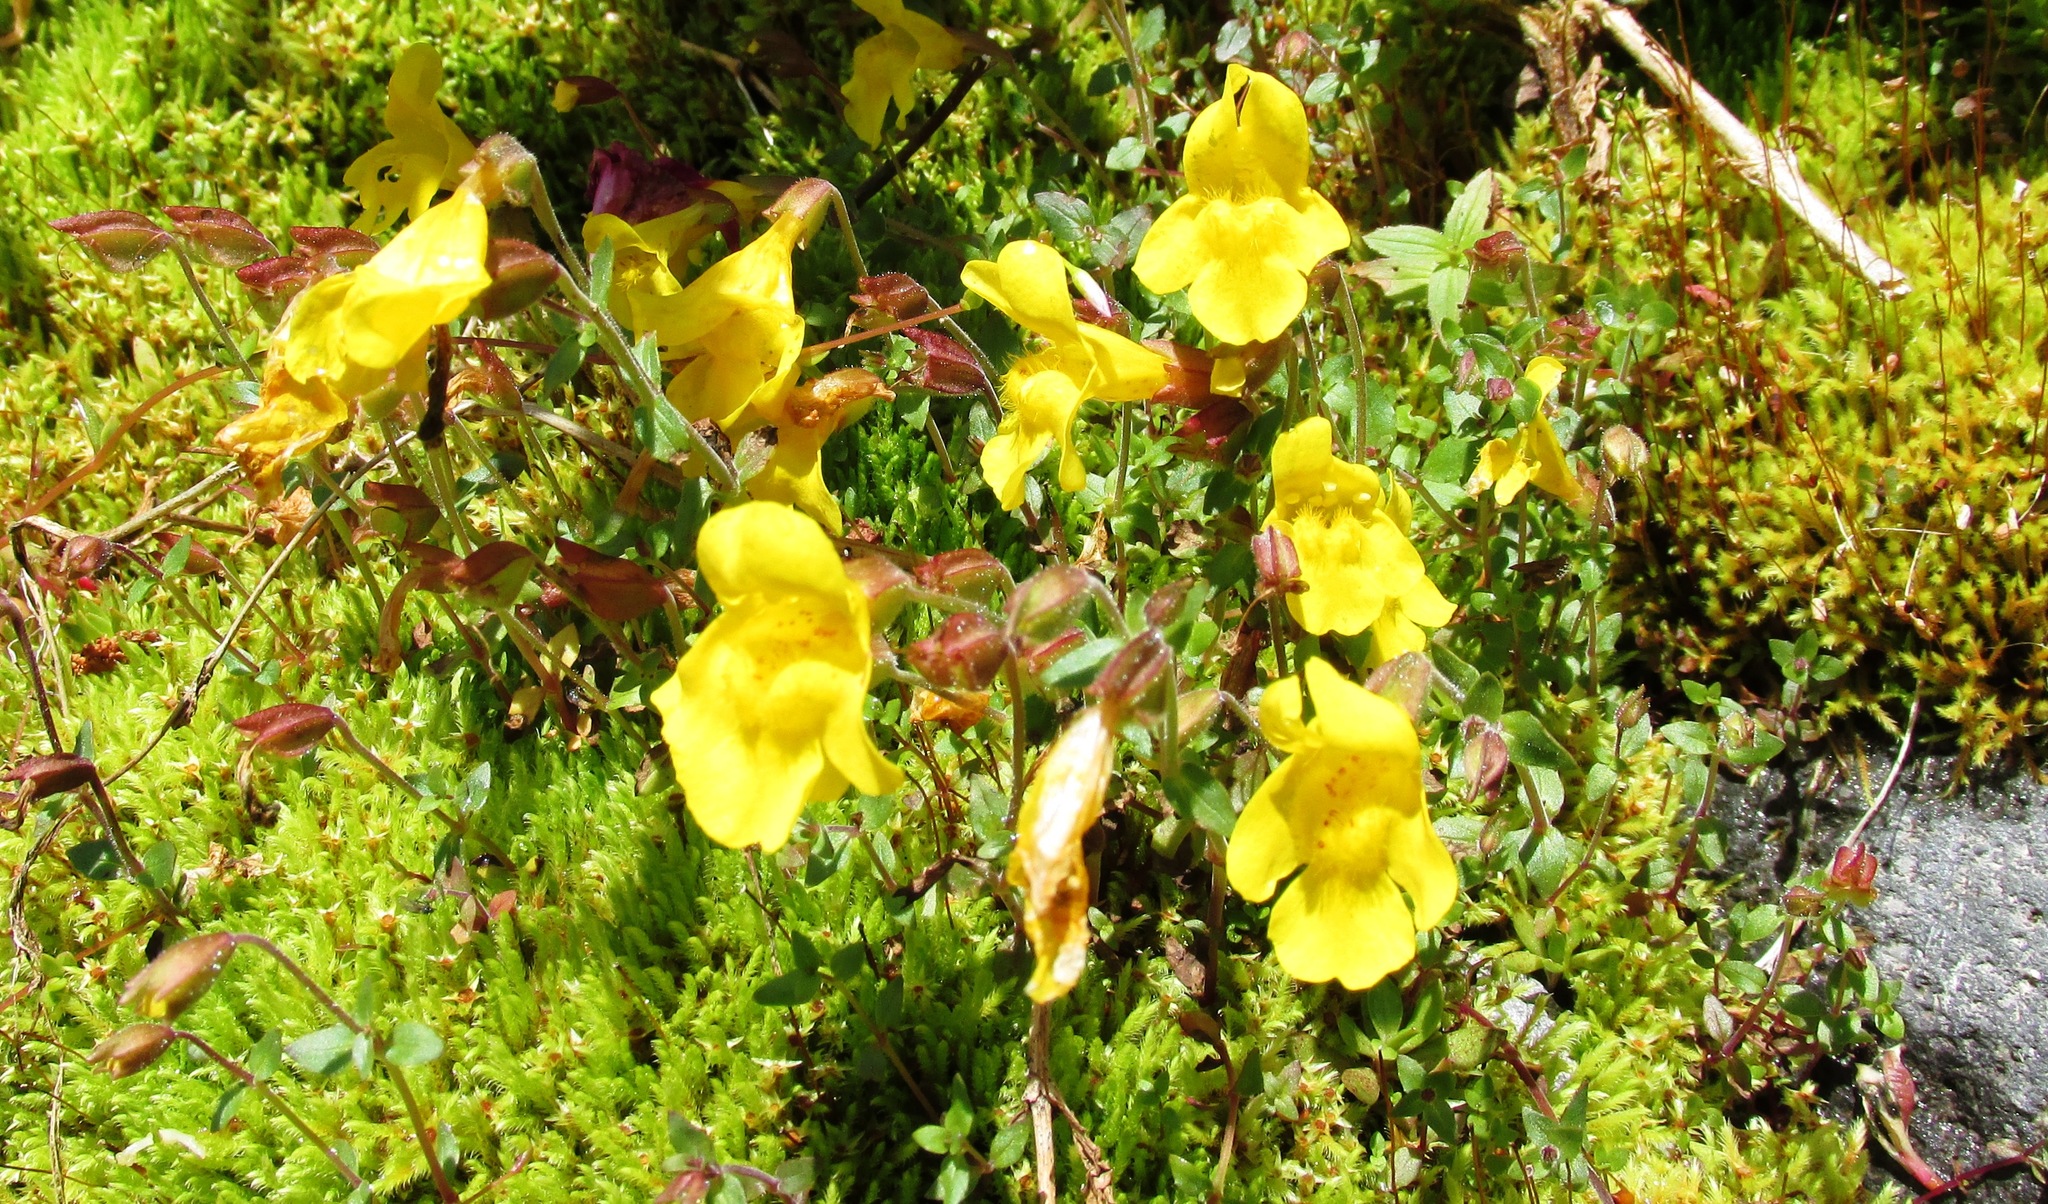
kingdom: Plantae
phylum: Tracheophyta
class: Magnoliopsida
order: Lamiales
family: Phrymaceae
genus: Erythranthe
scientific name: Erythranthe caespitosa
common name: Subalpine monkeyflower
